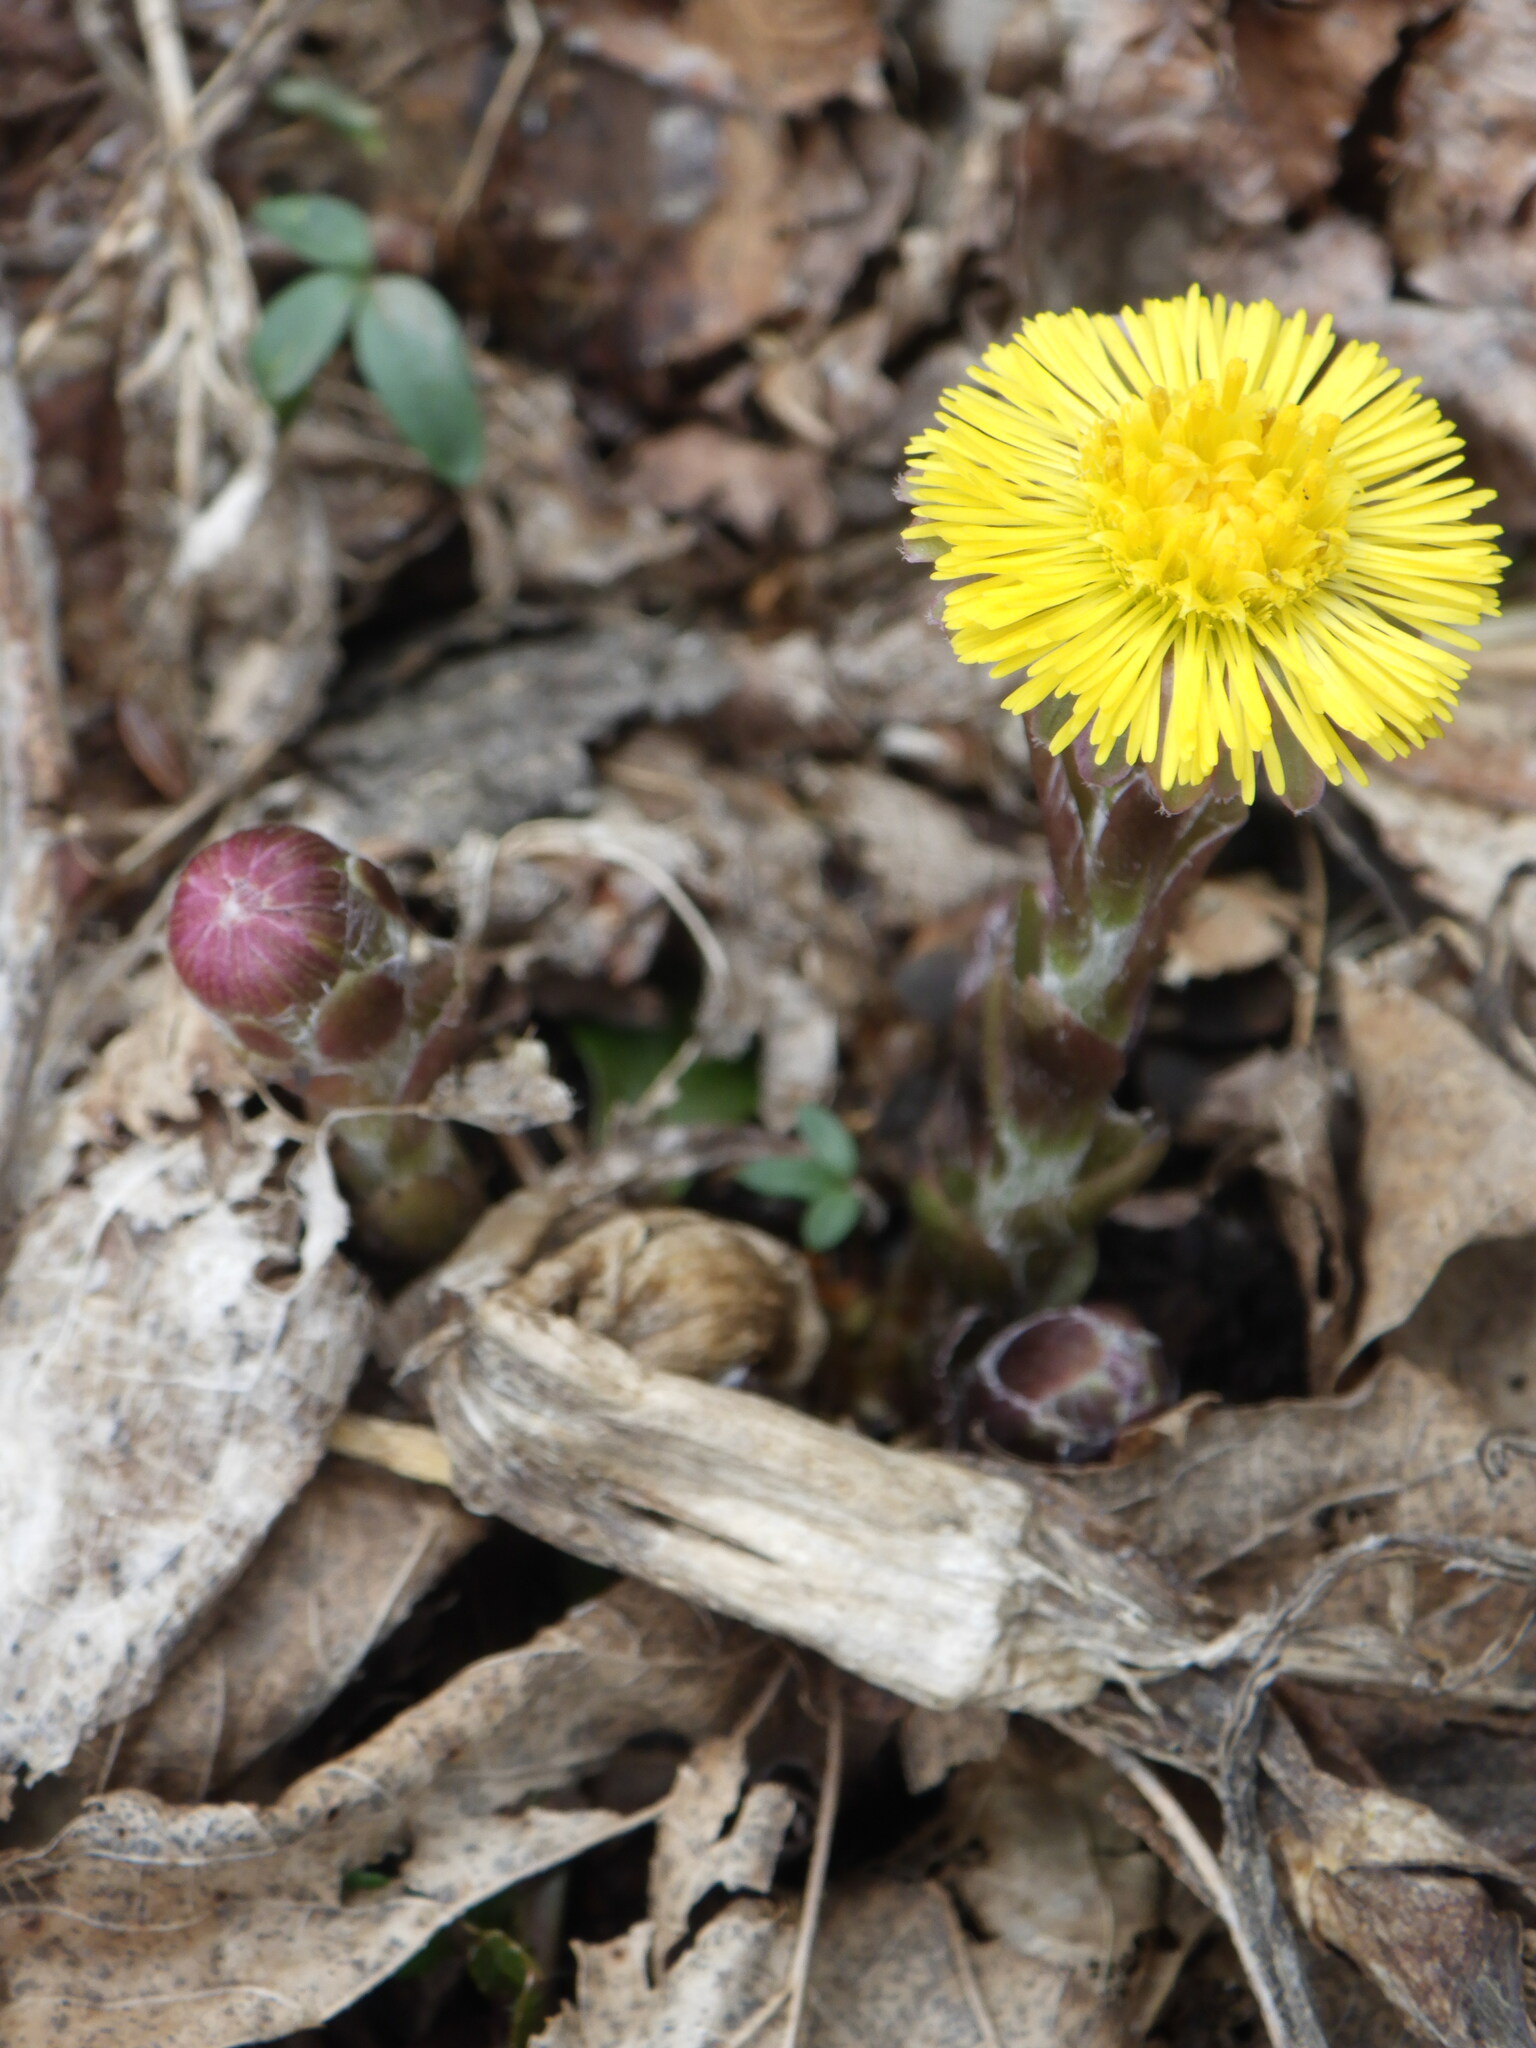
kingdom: Plantae
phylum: Tracheophyta
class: Magnoliopsida
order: Asterales
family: Asteraceae
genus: Tussilago
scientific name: Tussilago farfara
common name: Coltsfoot
